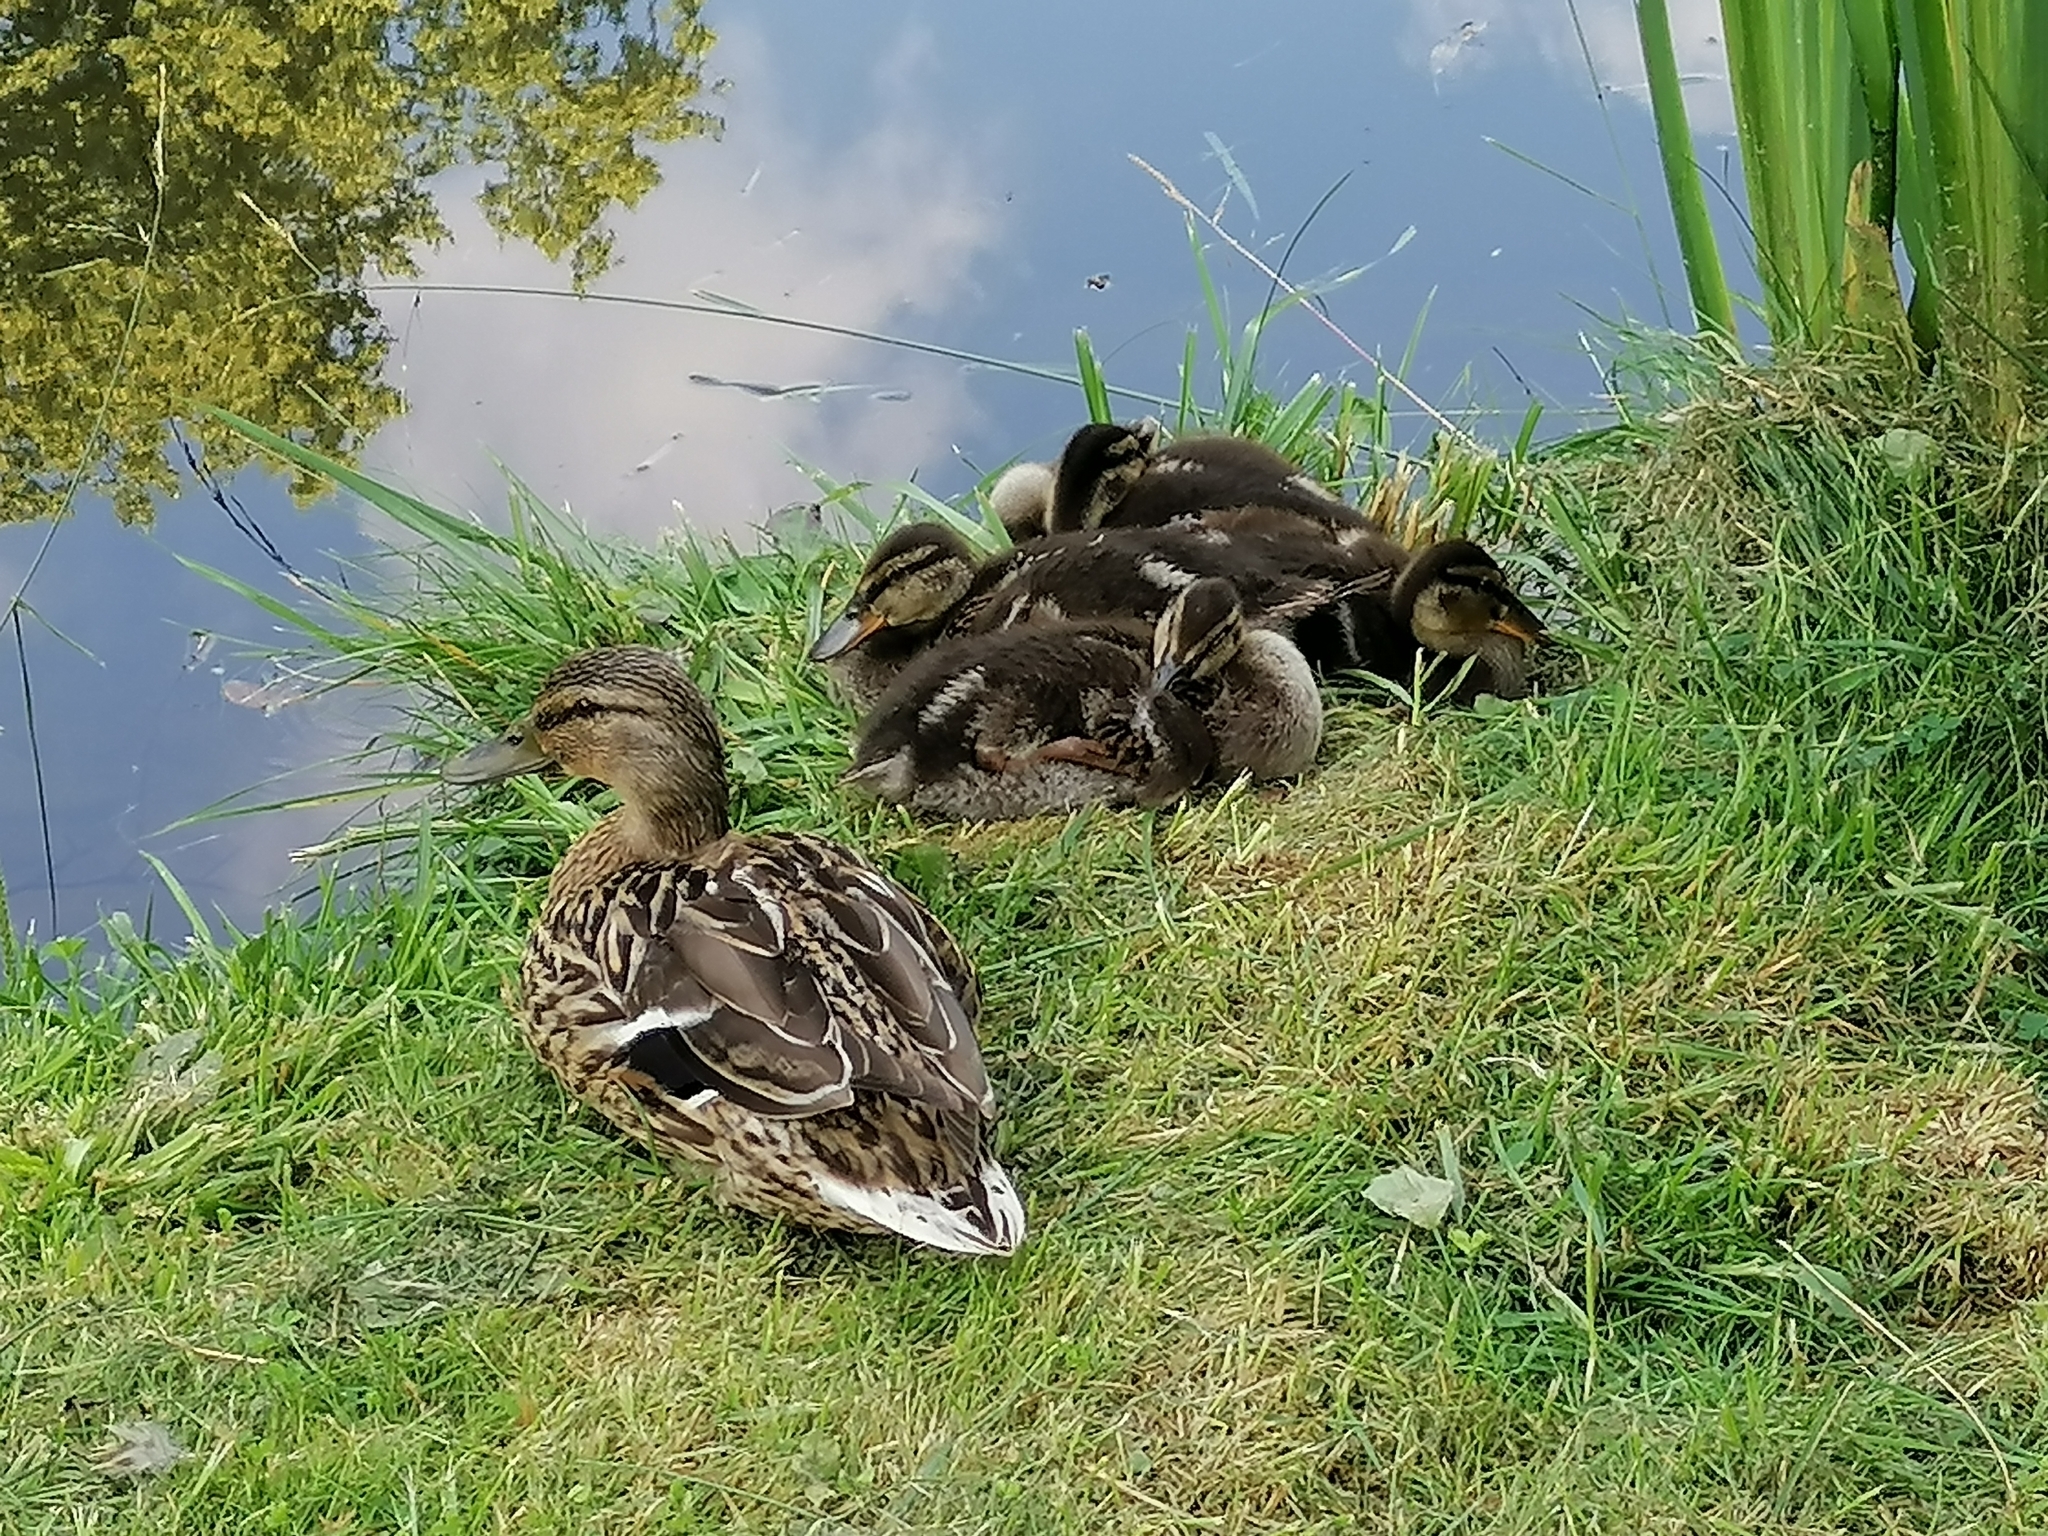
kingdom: Animalia
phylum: Chordata
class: Aves
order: Anseriformes
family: Anatidae
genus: Anas
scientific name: Anas platyrhynchos
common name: Mallard
